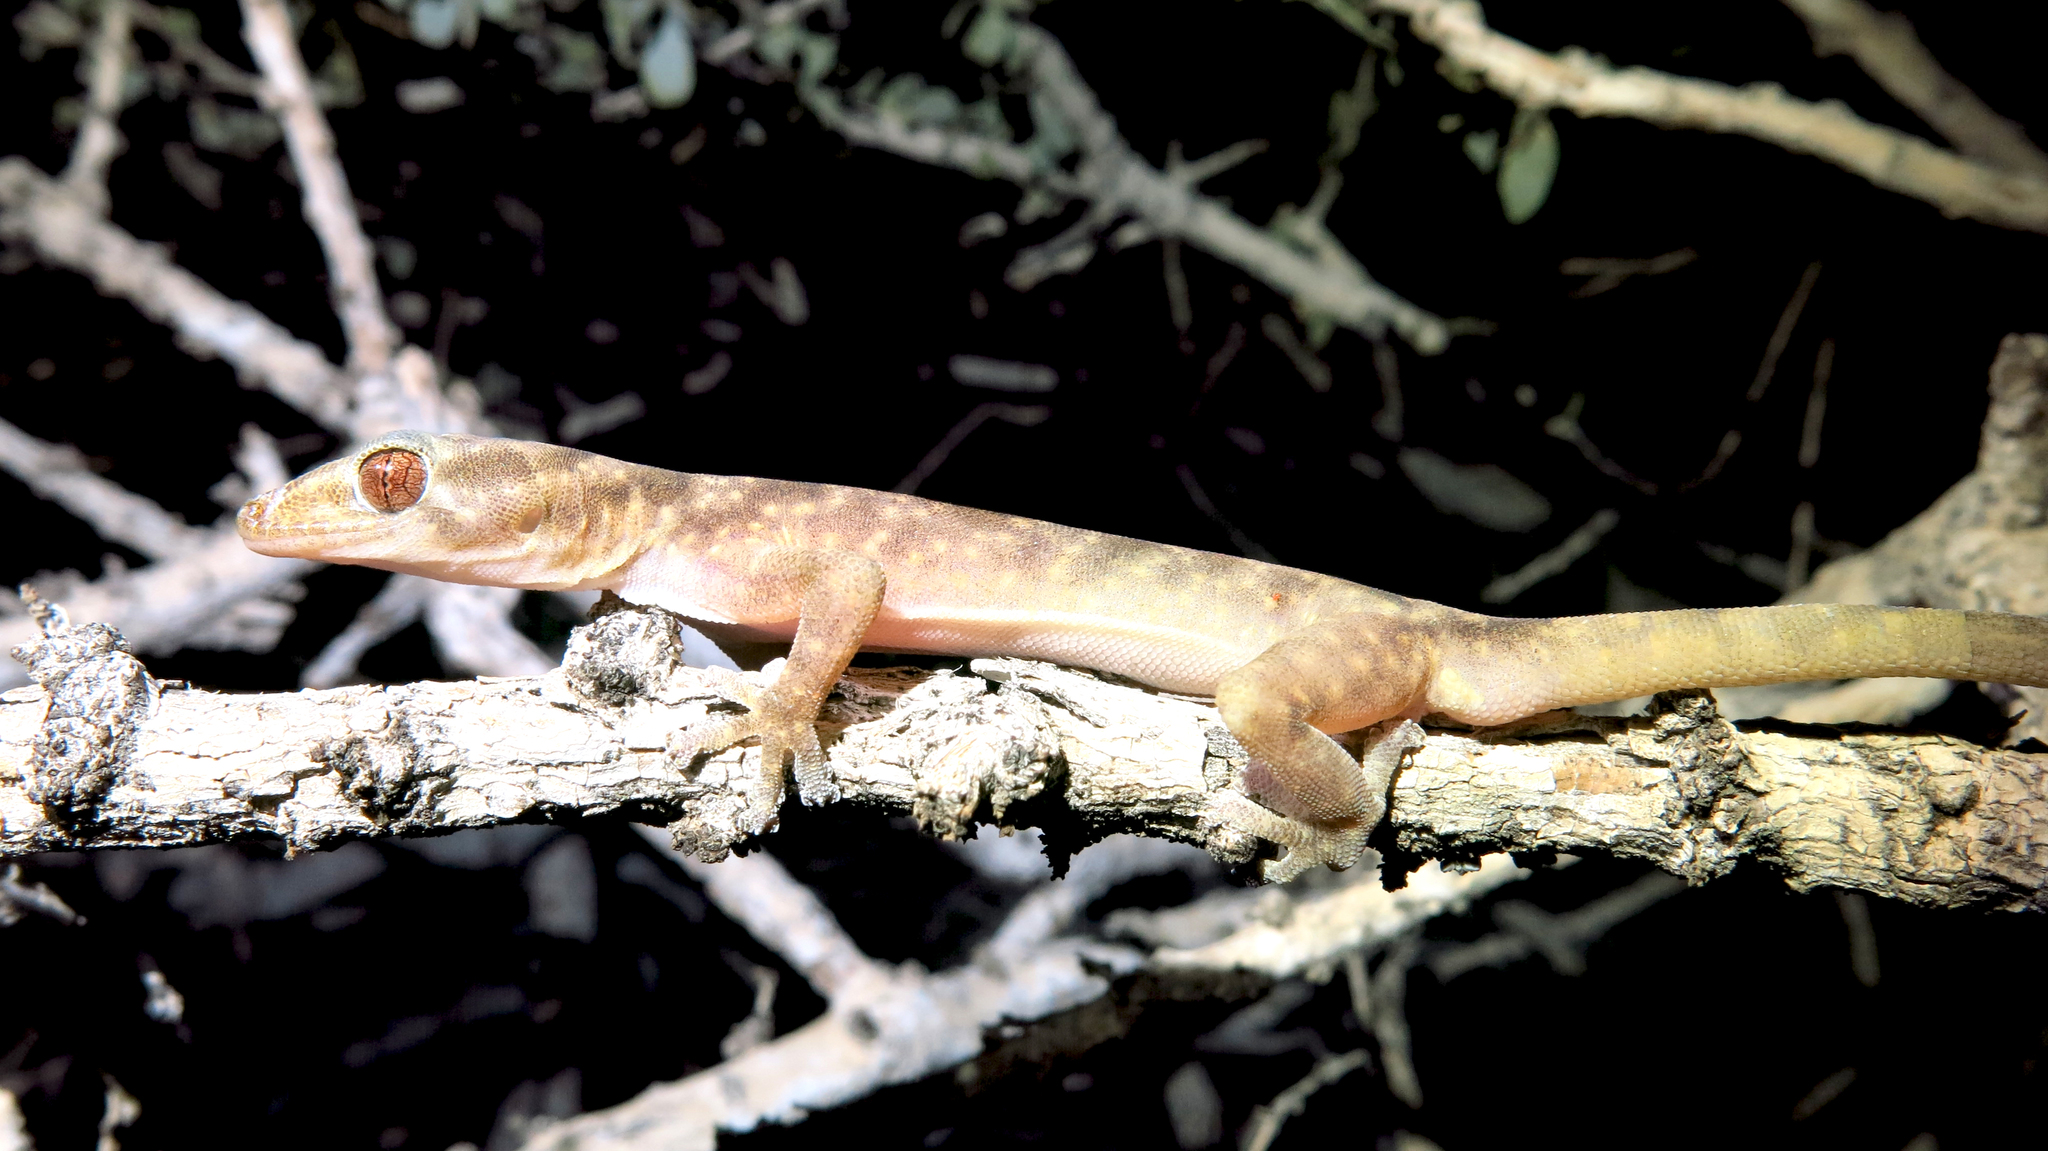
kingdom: Animalia
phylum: Chordata
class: Squamata
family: Gekkonidae
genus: Afroedura
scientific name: Afroedura namaquensis
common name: Namaqua flat gecko
